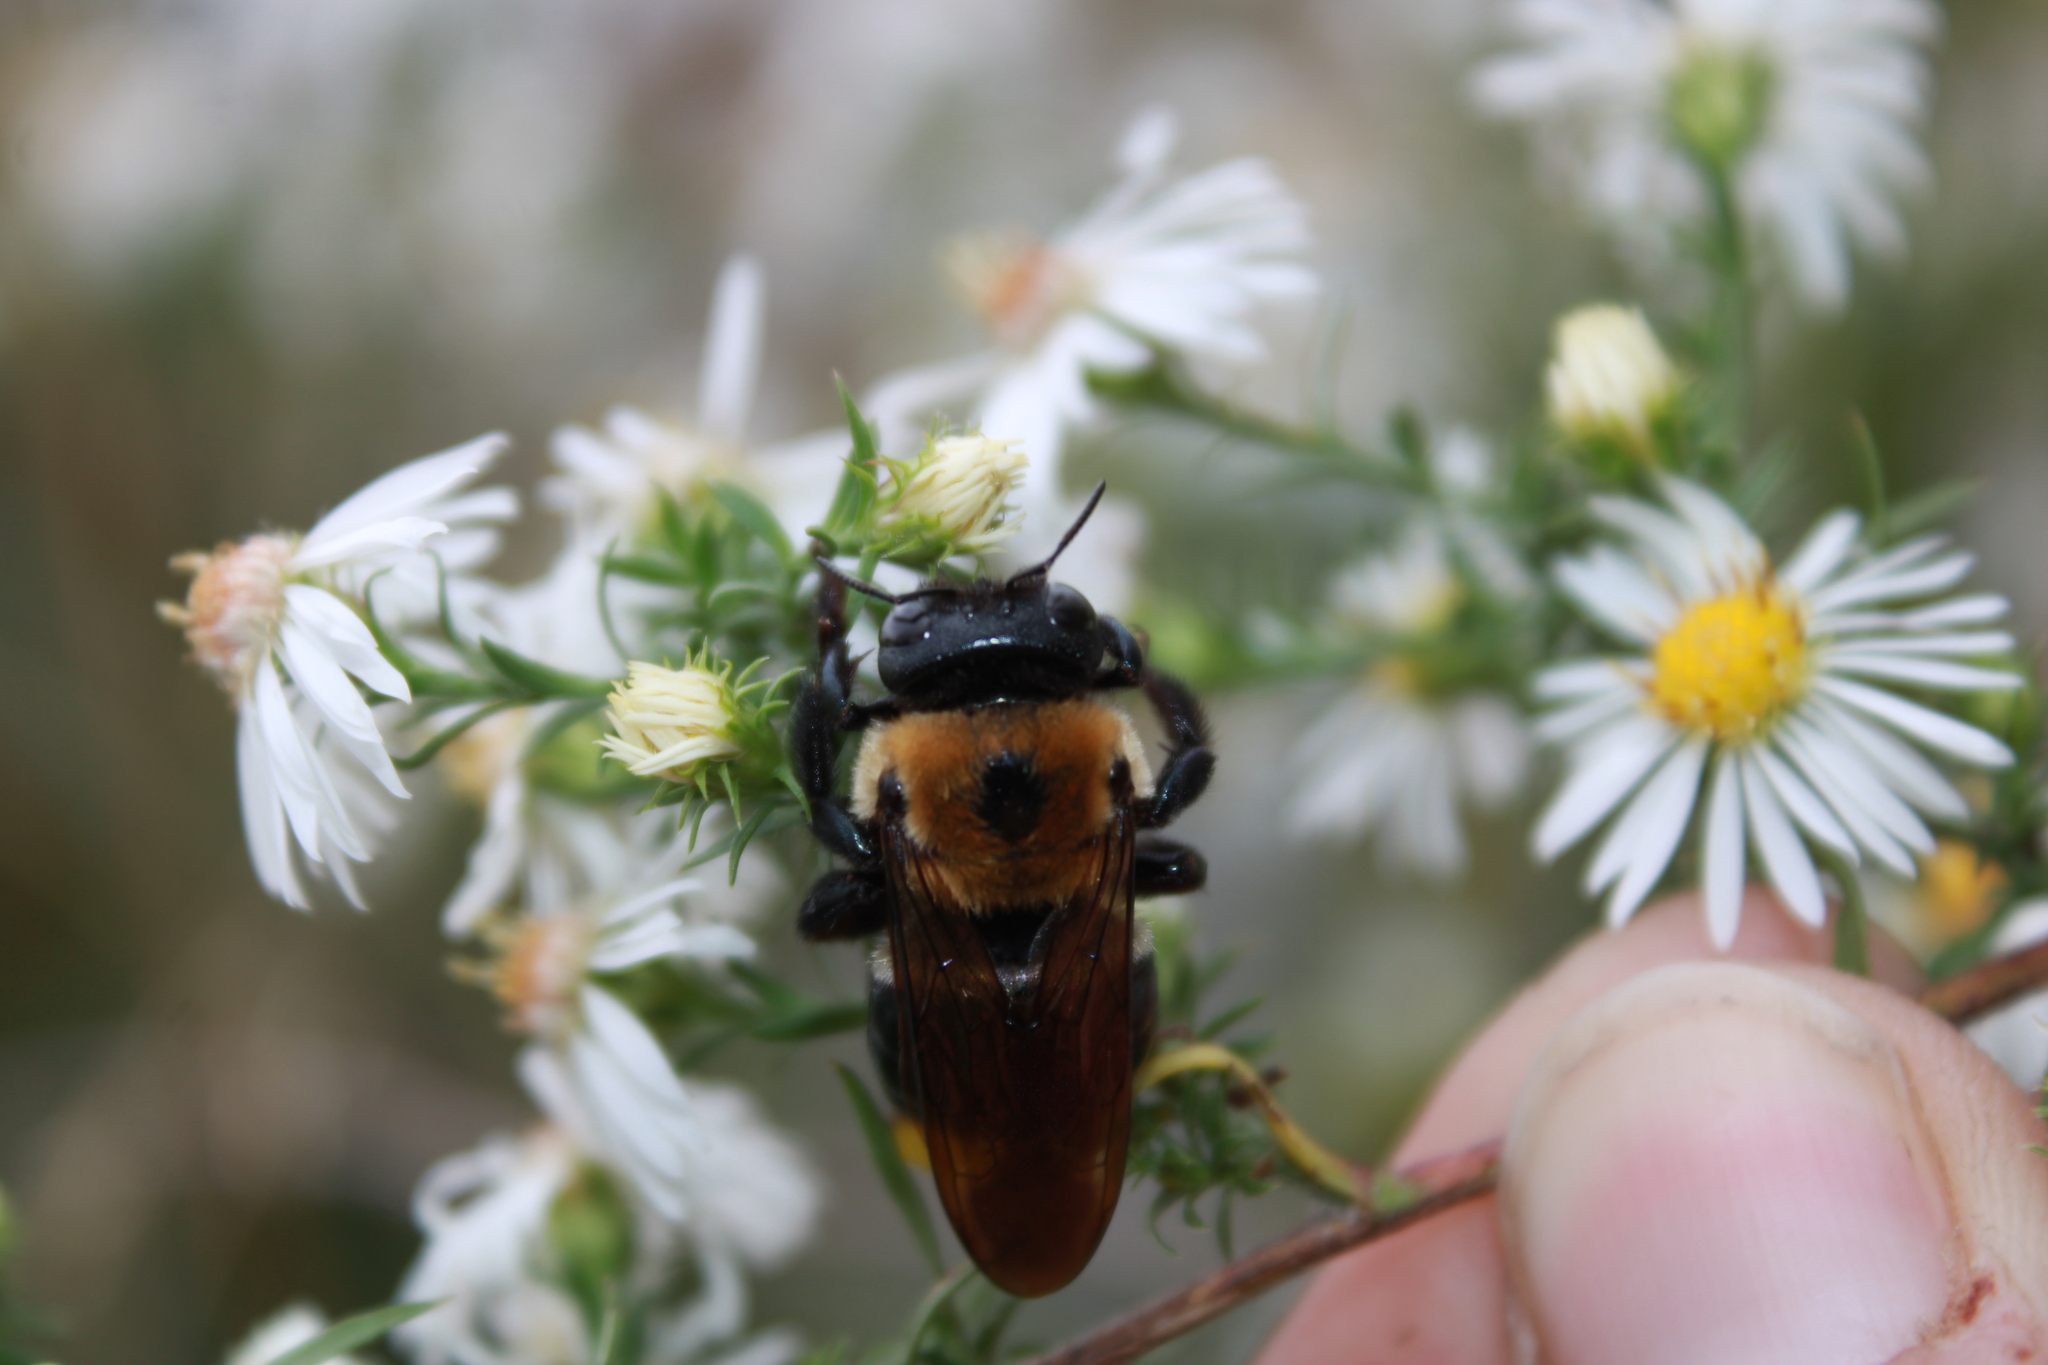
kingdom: Animalia
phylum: Arthropoda
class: Insecta
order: Hymenoptera
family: Apidae
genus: Xylocopa
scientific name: Xylocopa virginica
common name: Carpenter bee
